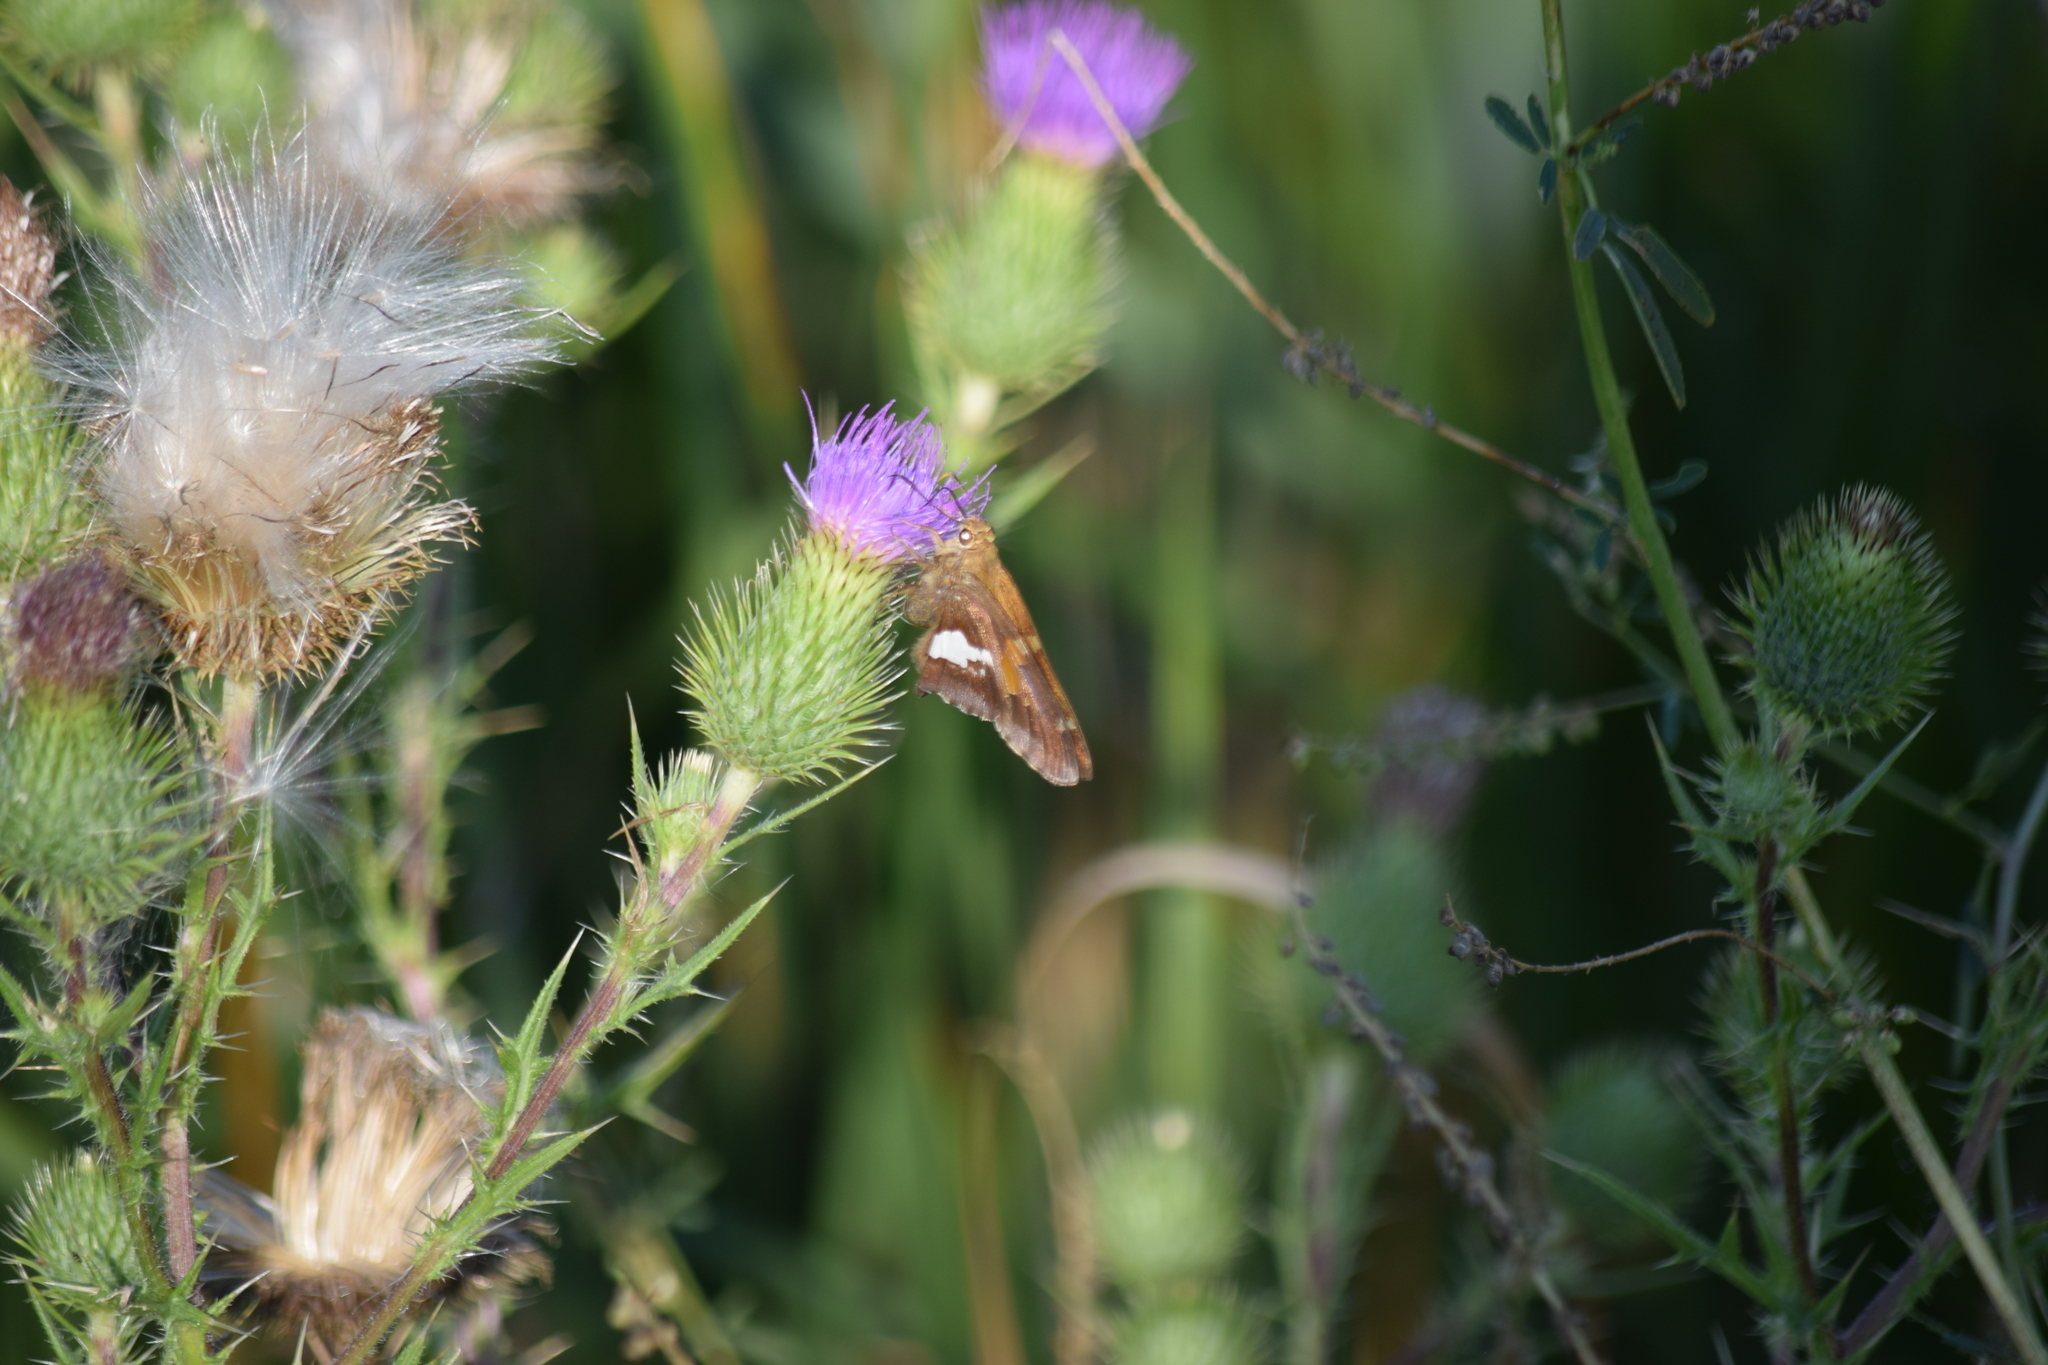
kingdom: Animalia
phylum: Arthropoda
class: Insecta
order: Lepidoptera
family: Hesperiidae
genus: Epargyreus
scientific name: Epargyreus clarus
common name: Silver-spotted skipper
